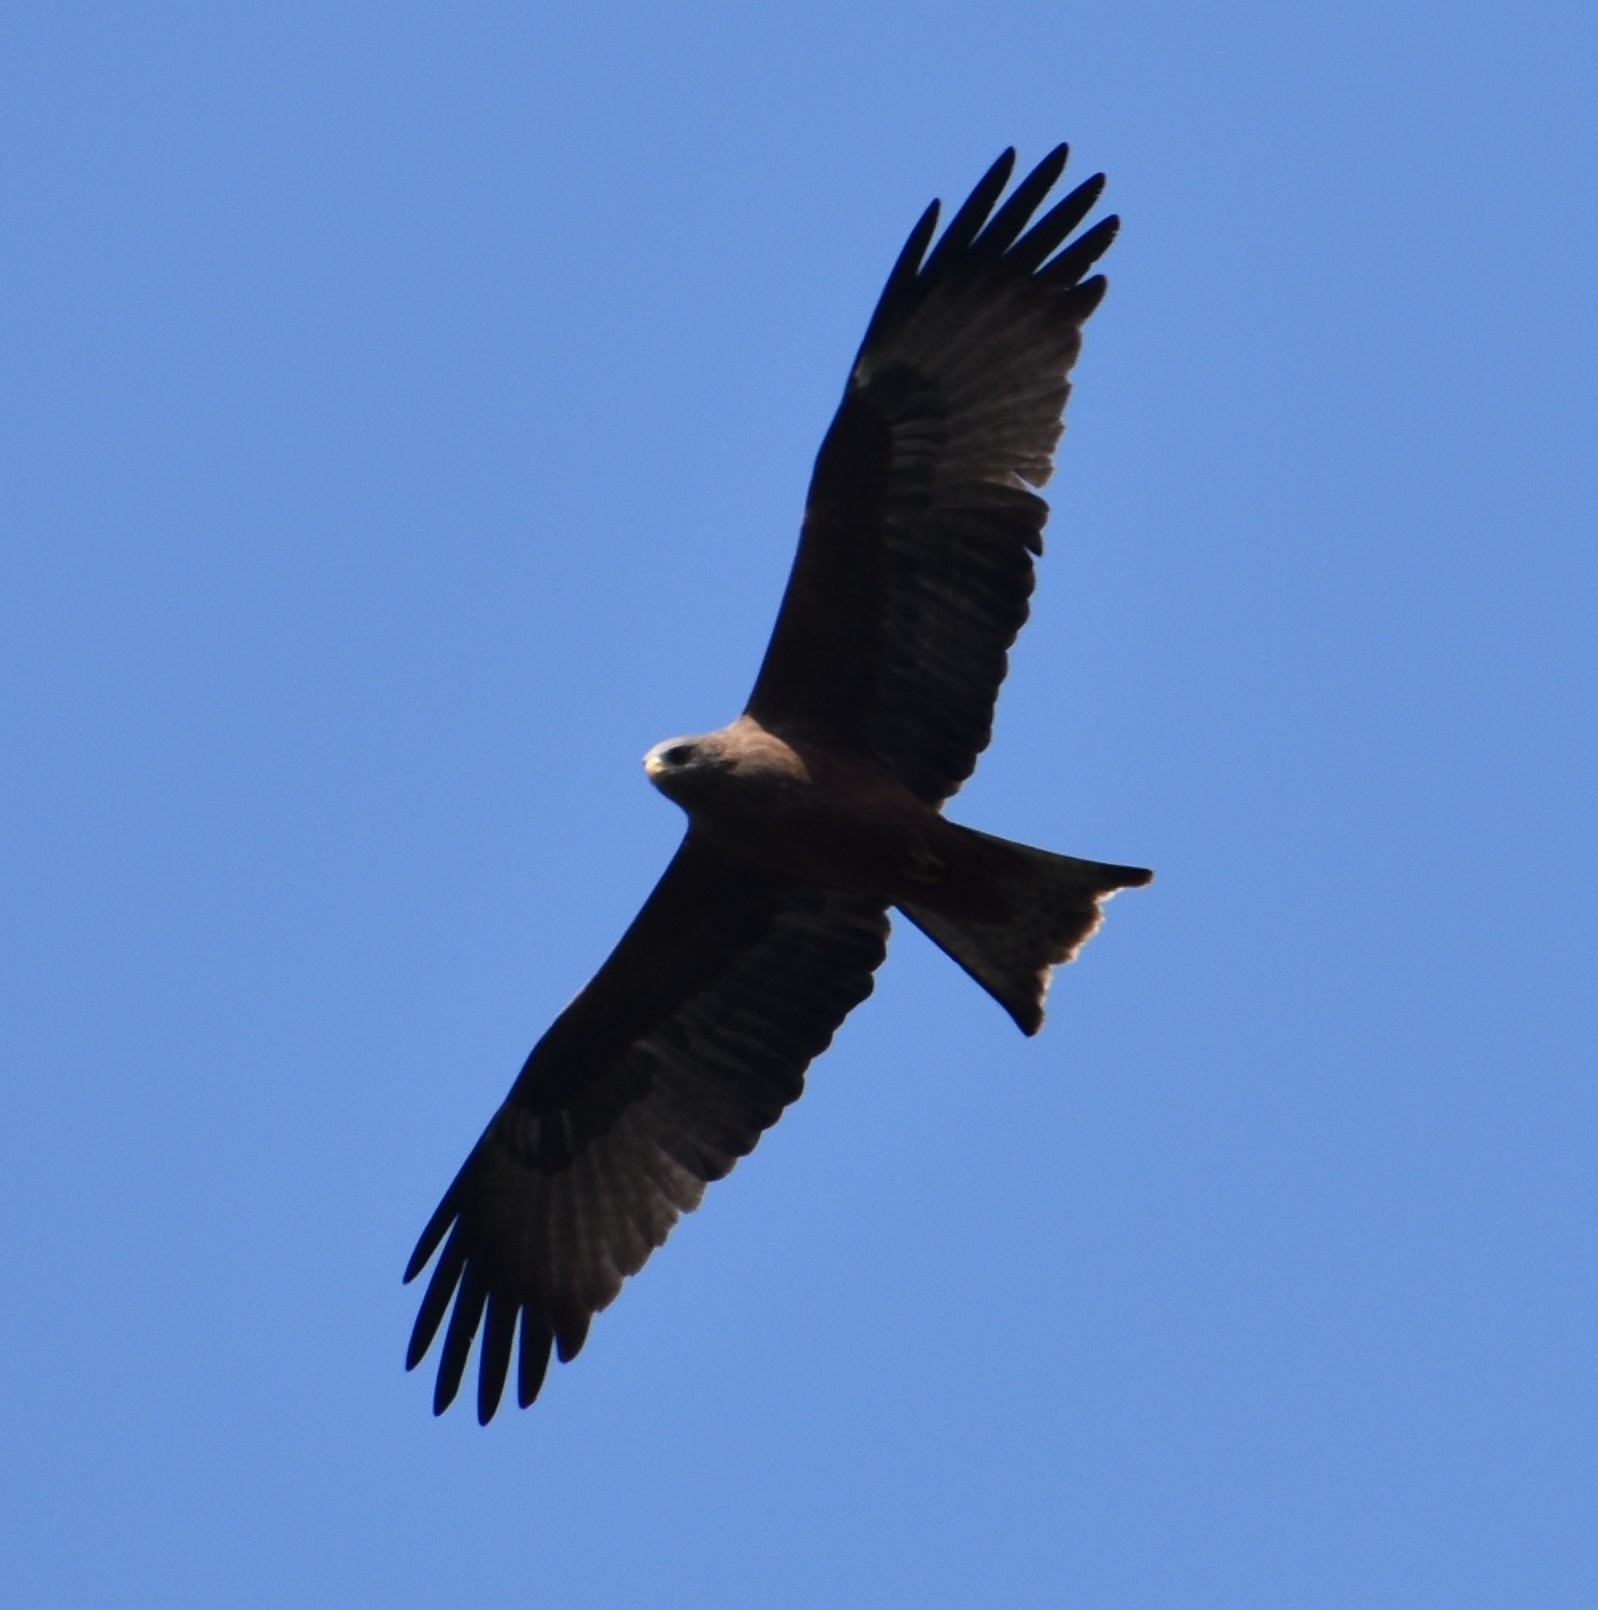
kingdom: Animalia
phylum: Chordata
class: Aves
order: Accipitriformes
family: Accipitridae
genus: Milvus
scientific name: Milvus migrans
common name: Black kite
